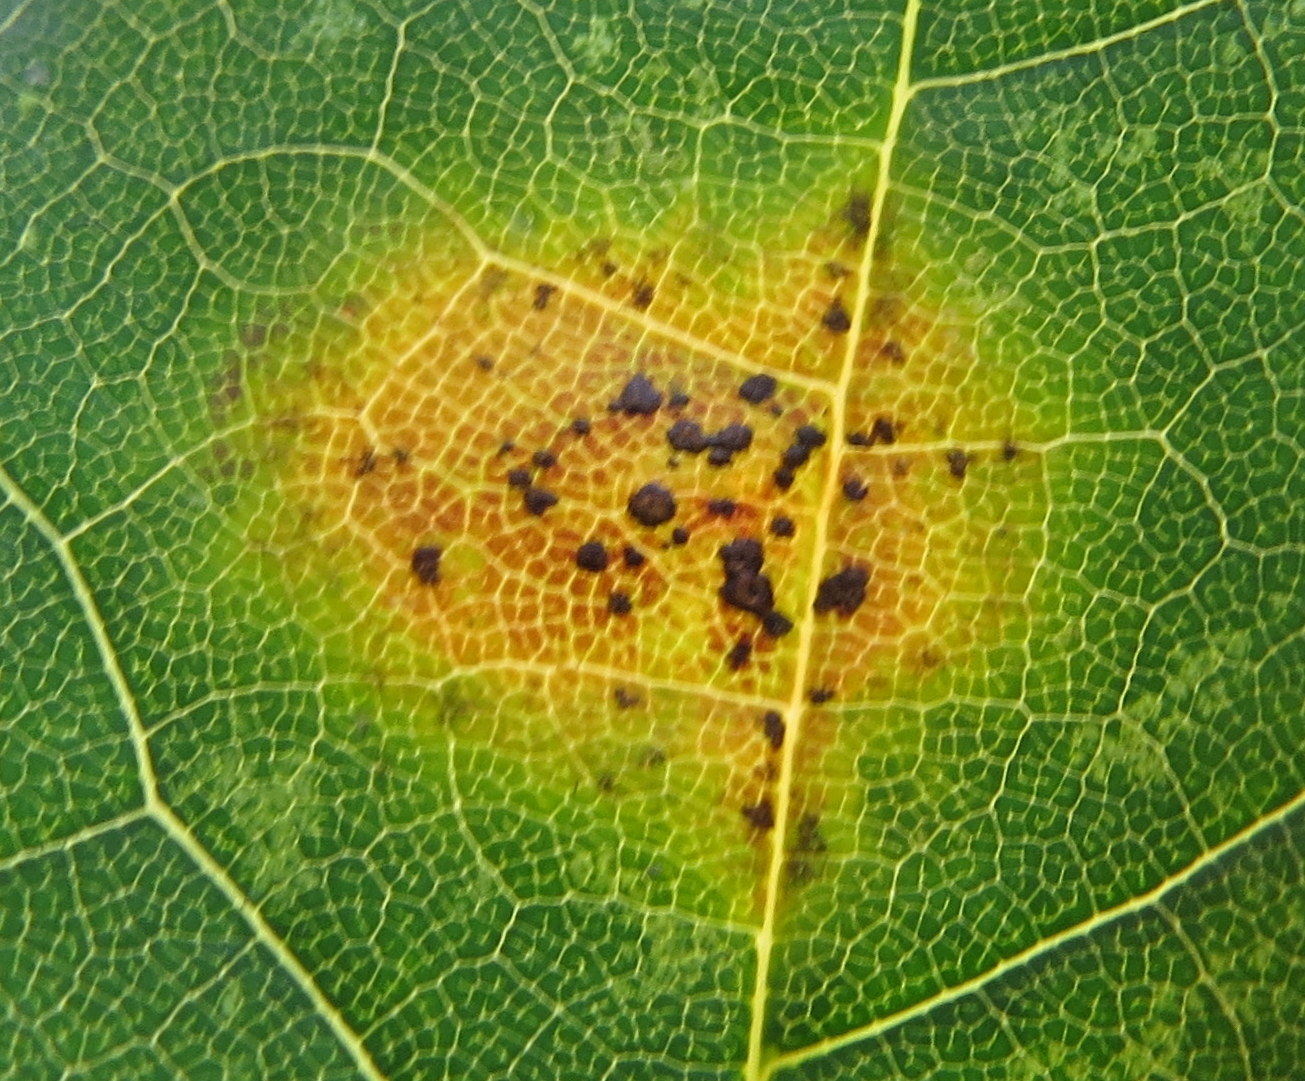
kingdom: Fungi
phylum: Ascomycota
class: Leotiomycetes
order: Rhytismatales
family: Rhytismataceae
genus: Rhytisma
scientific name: Rhytisma acerinum
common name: European tar spot
